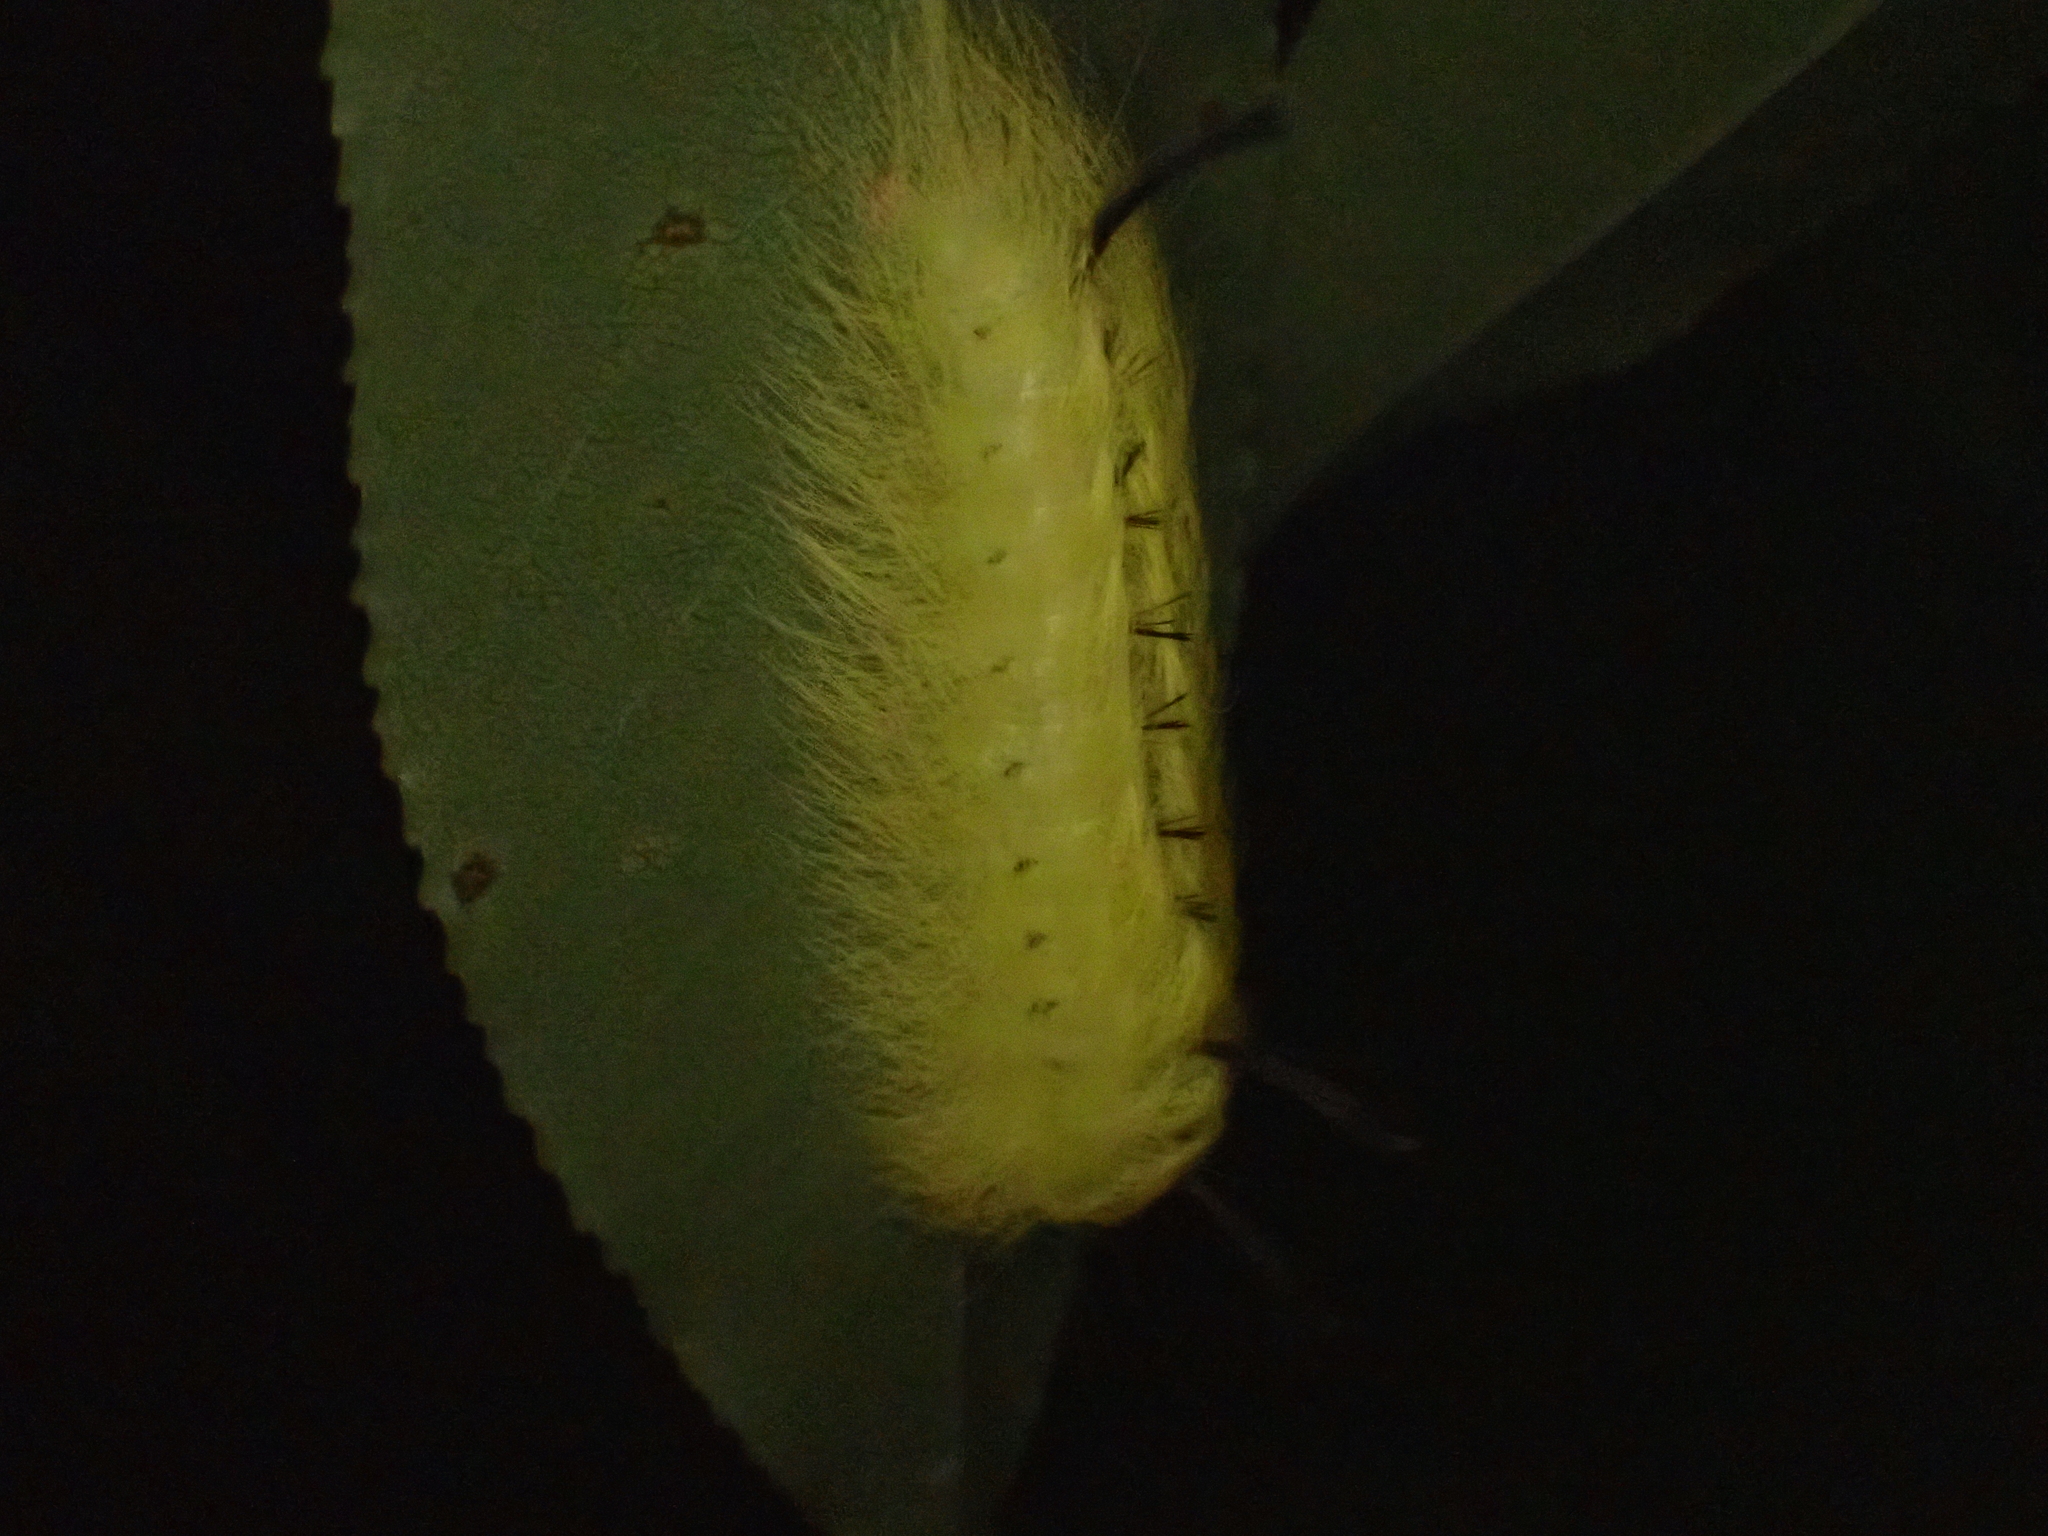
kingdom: Animalia
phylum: Arthropoda
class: Insecta
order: Lepidoptera
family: Apatelodidae
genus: Hygrochroa
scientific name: Hygrochroa Apatelodes torrefacta
